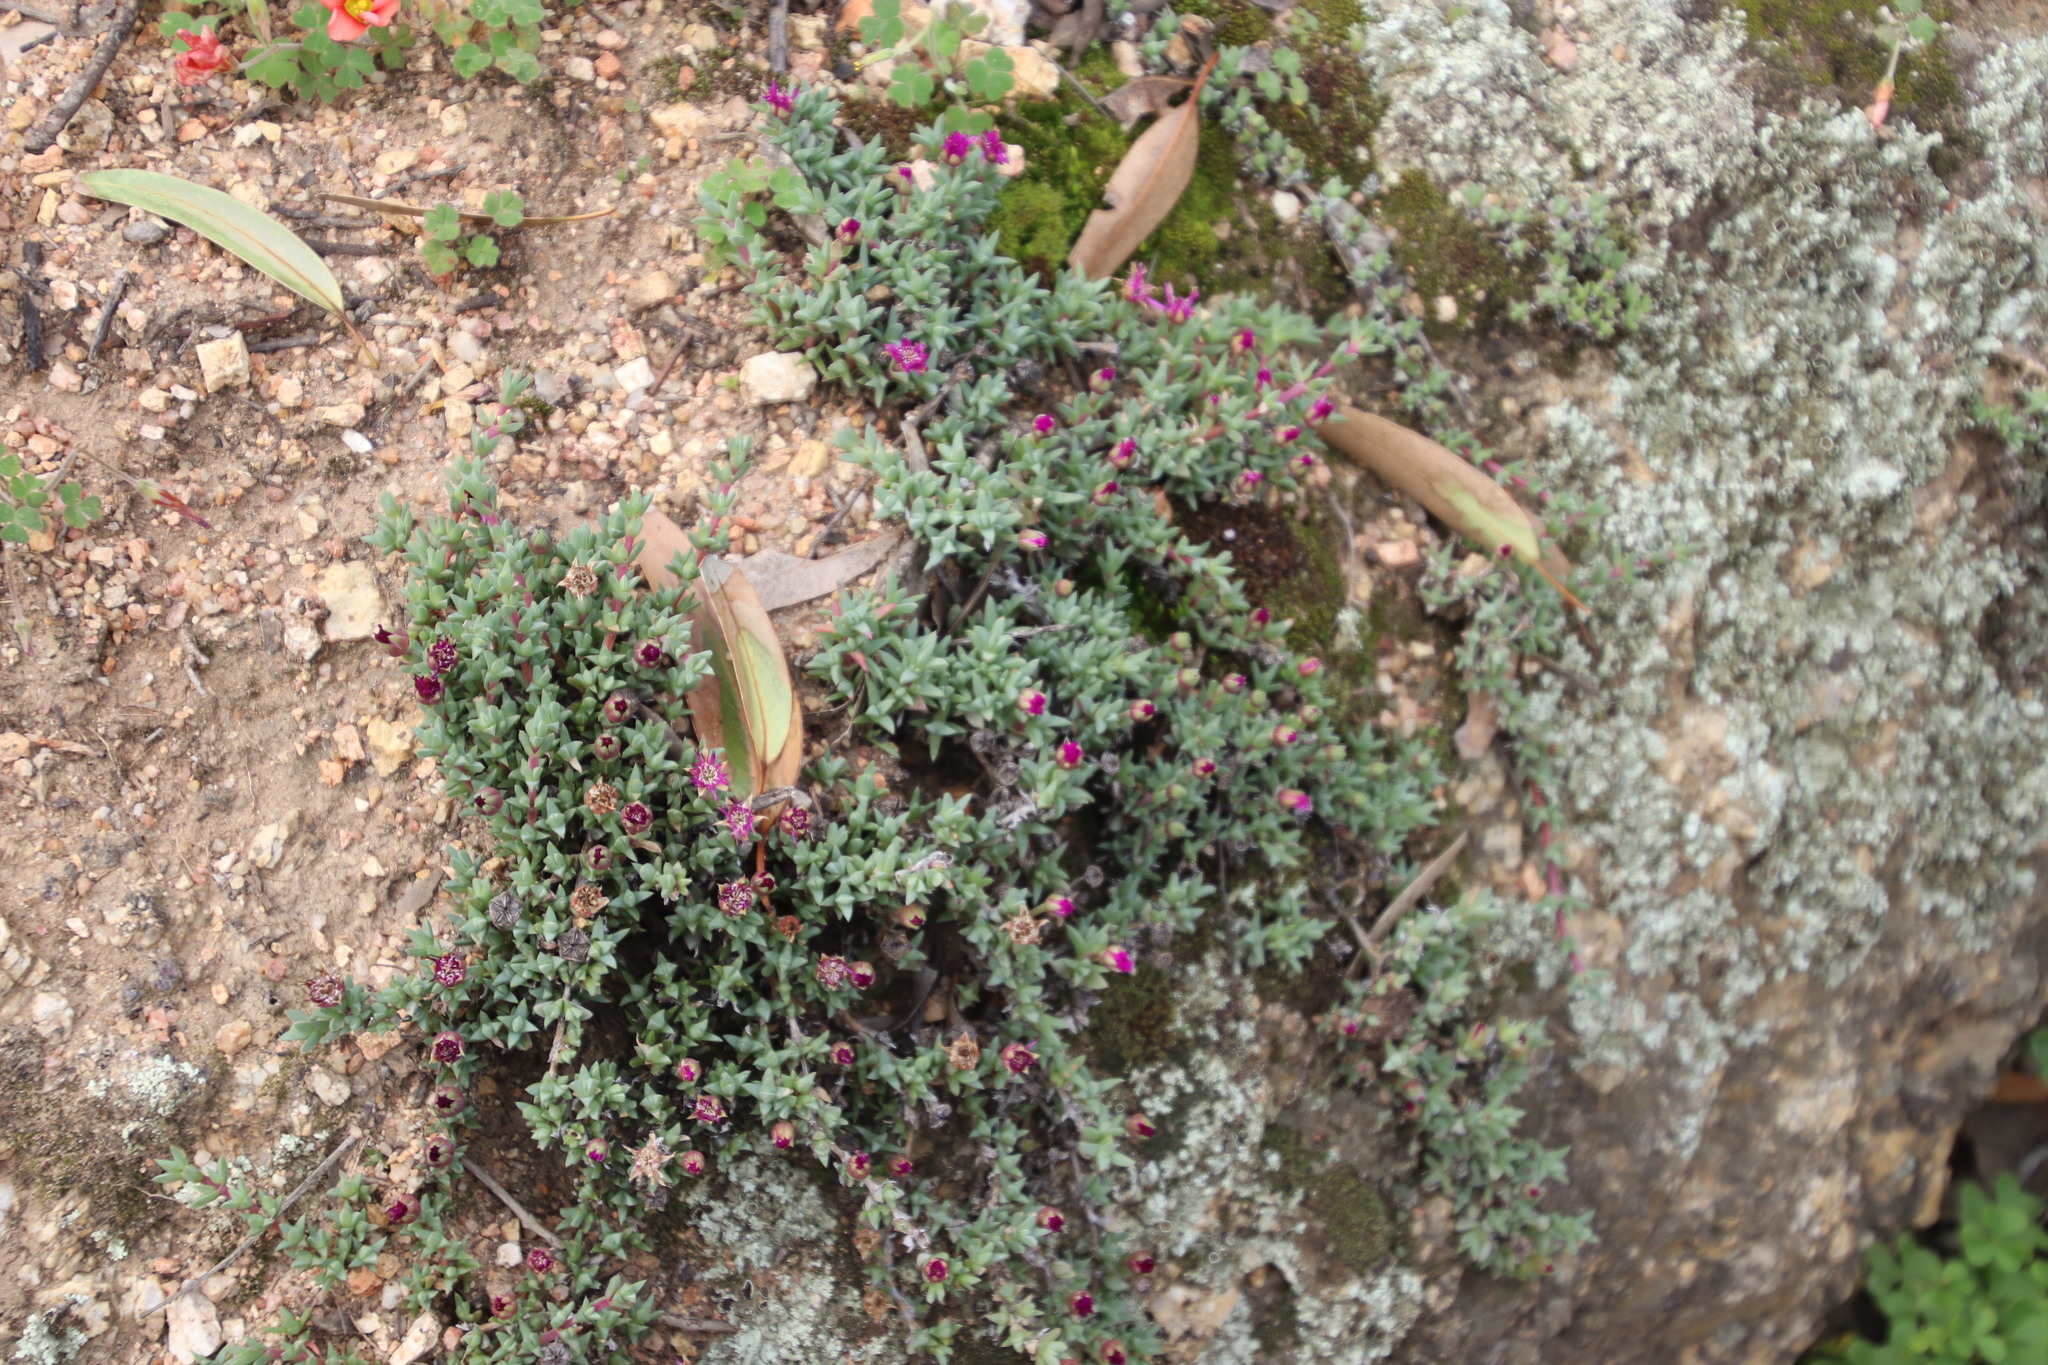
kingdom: Plantae
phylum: Tracheophyta
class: Magnoliopsida
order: Caryophyllales
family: Aizoaceae
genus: Antimima
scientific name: Antimima aristulata
